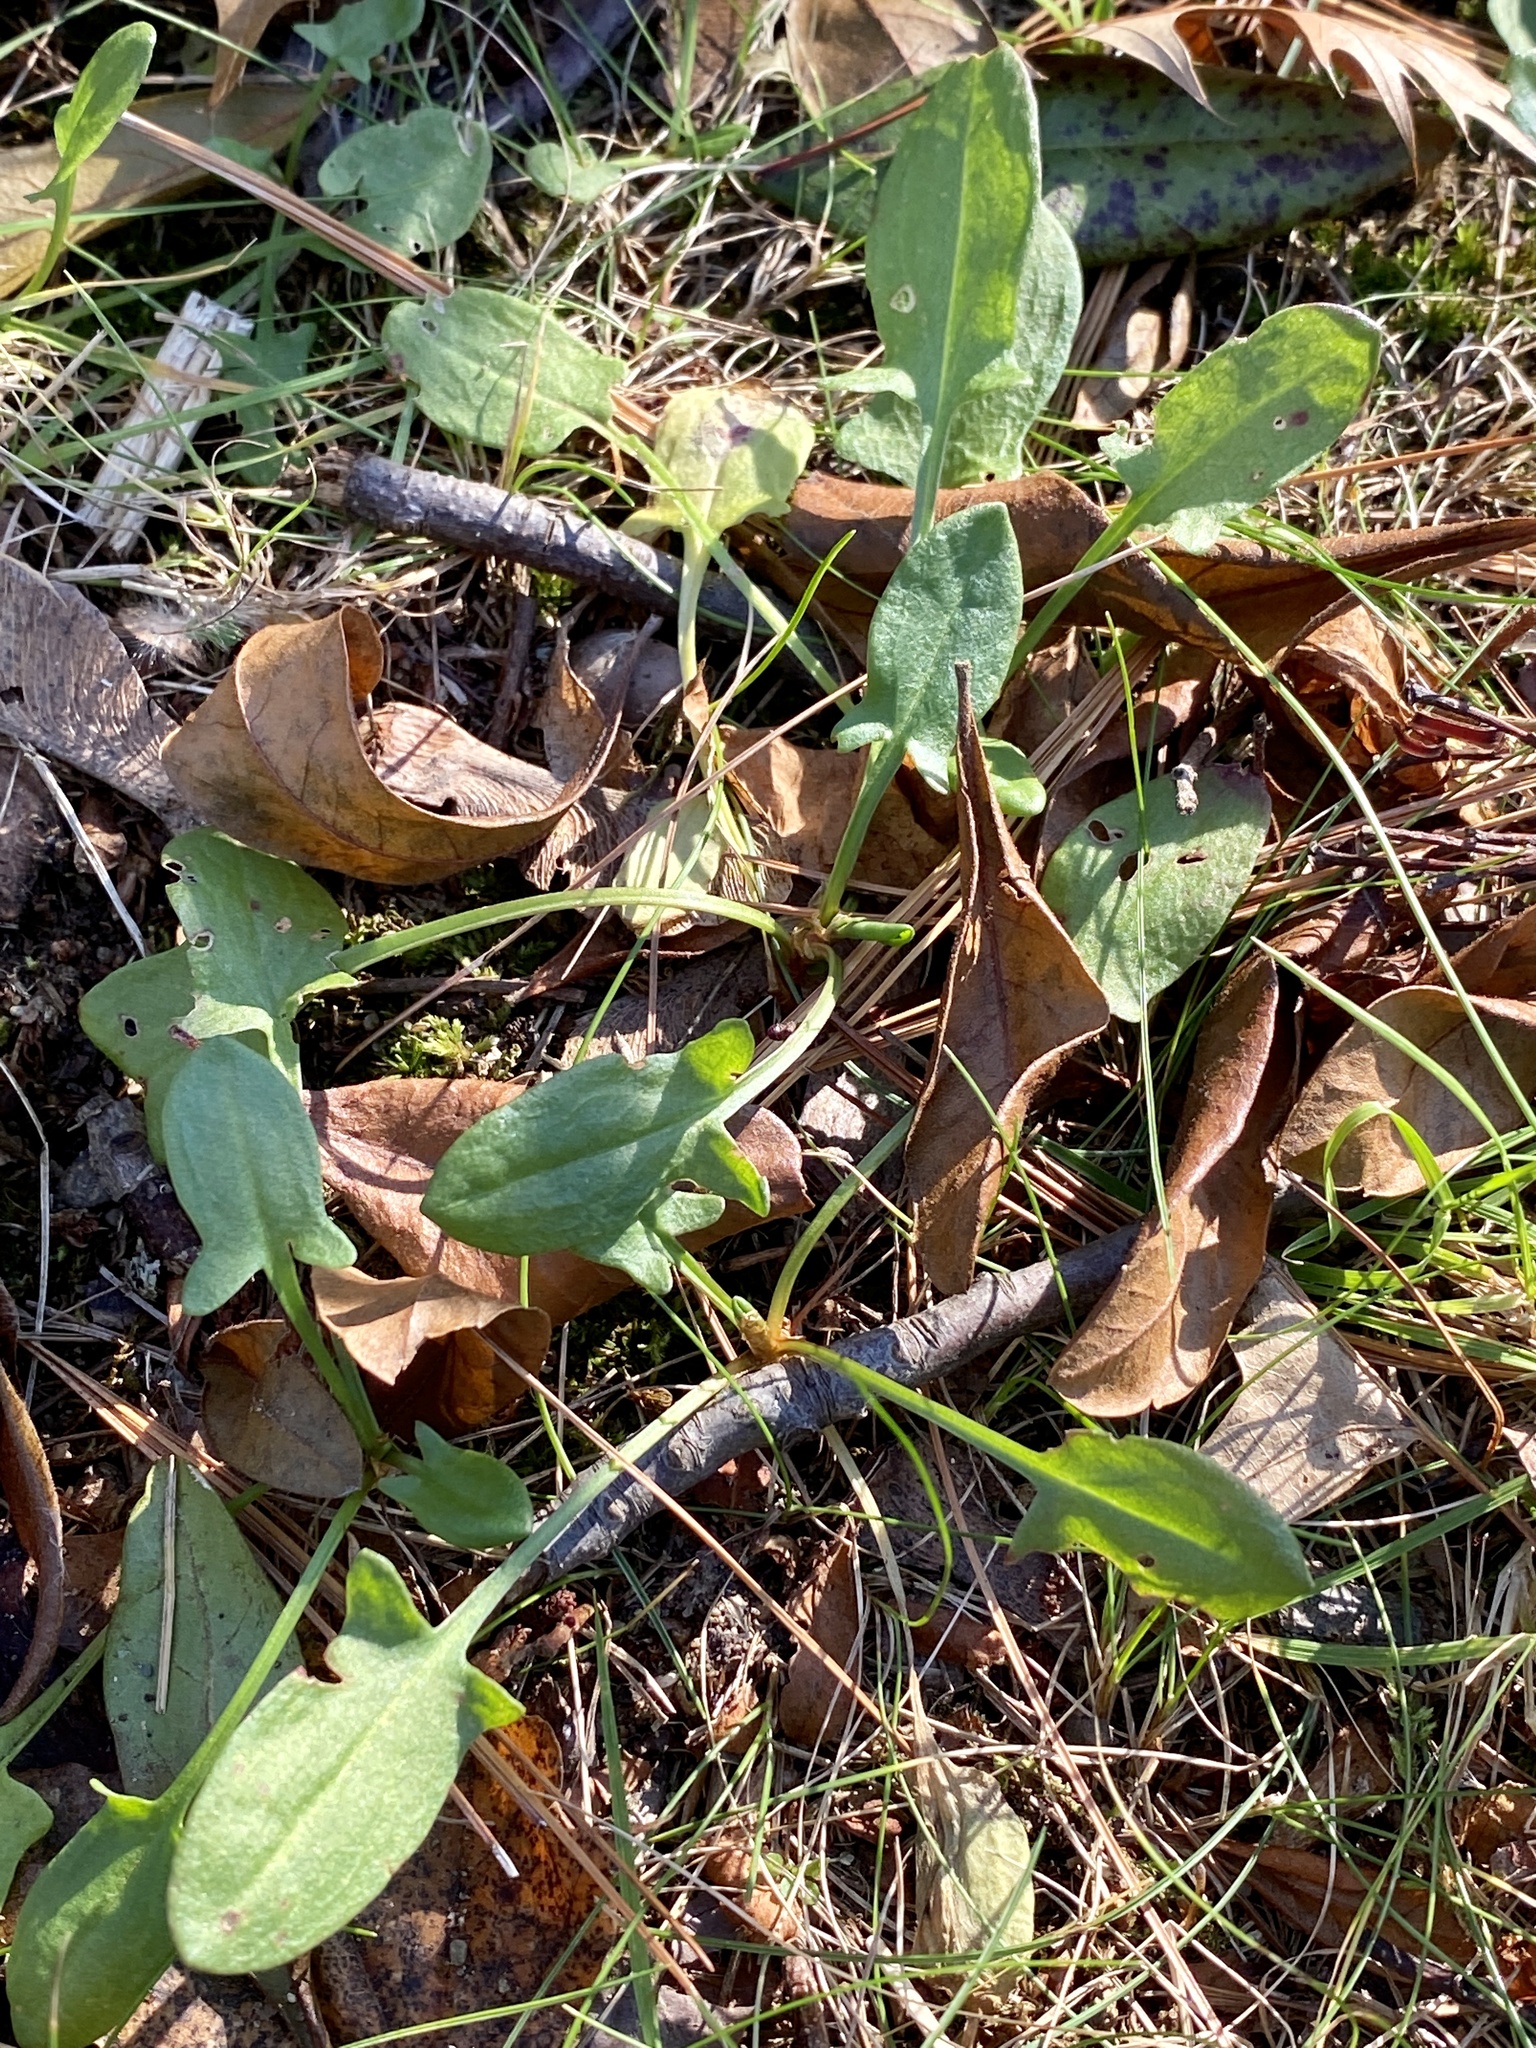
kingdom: Plantae
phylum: Tracheophyta
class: Magnoliopsida
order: Caryophyllales
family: Polygonaceae
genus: Rumex
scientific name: Rumex acetosella
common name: Common sheep sorrel
